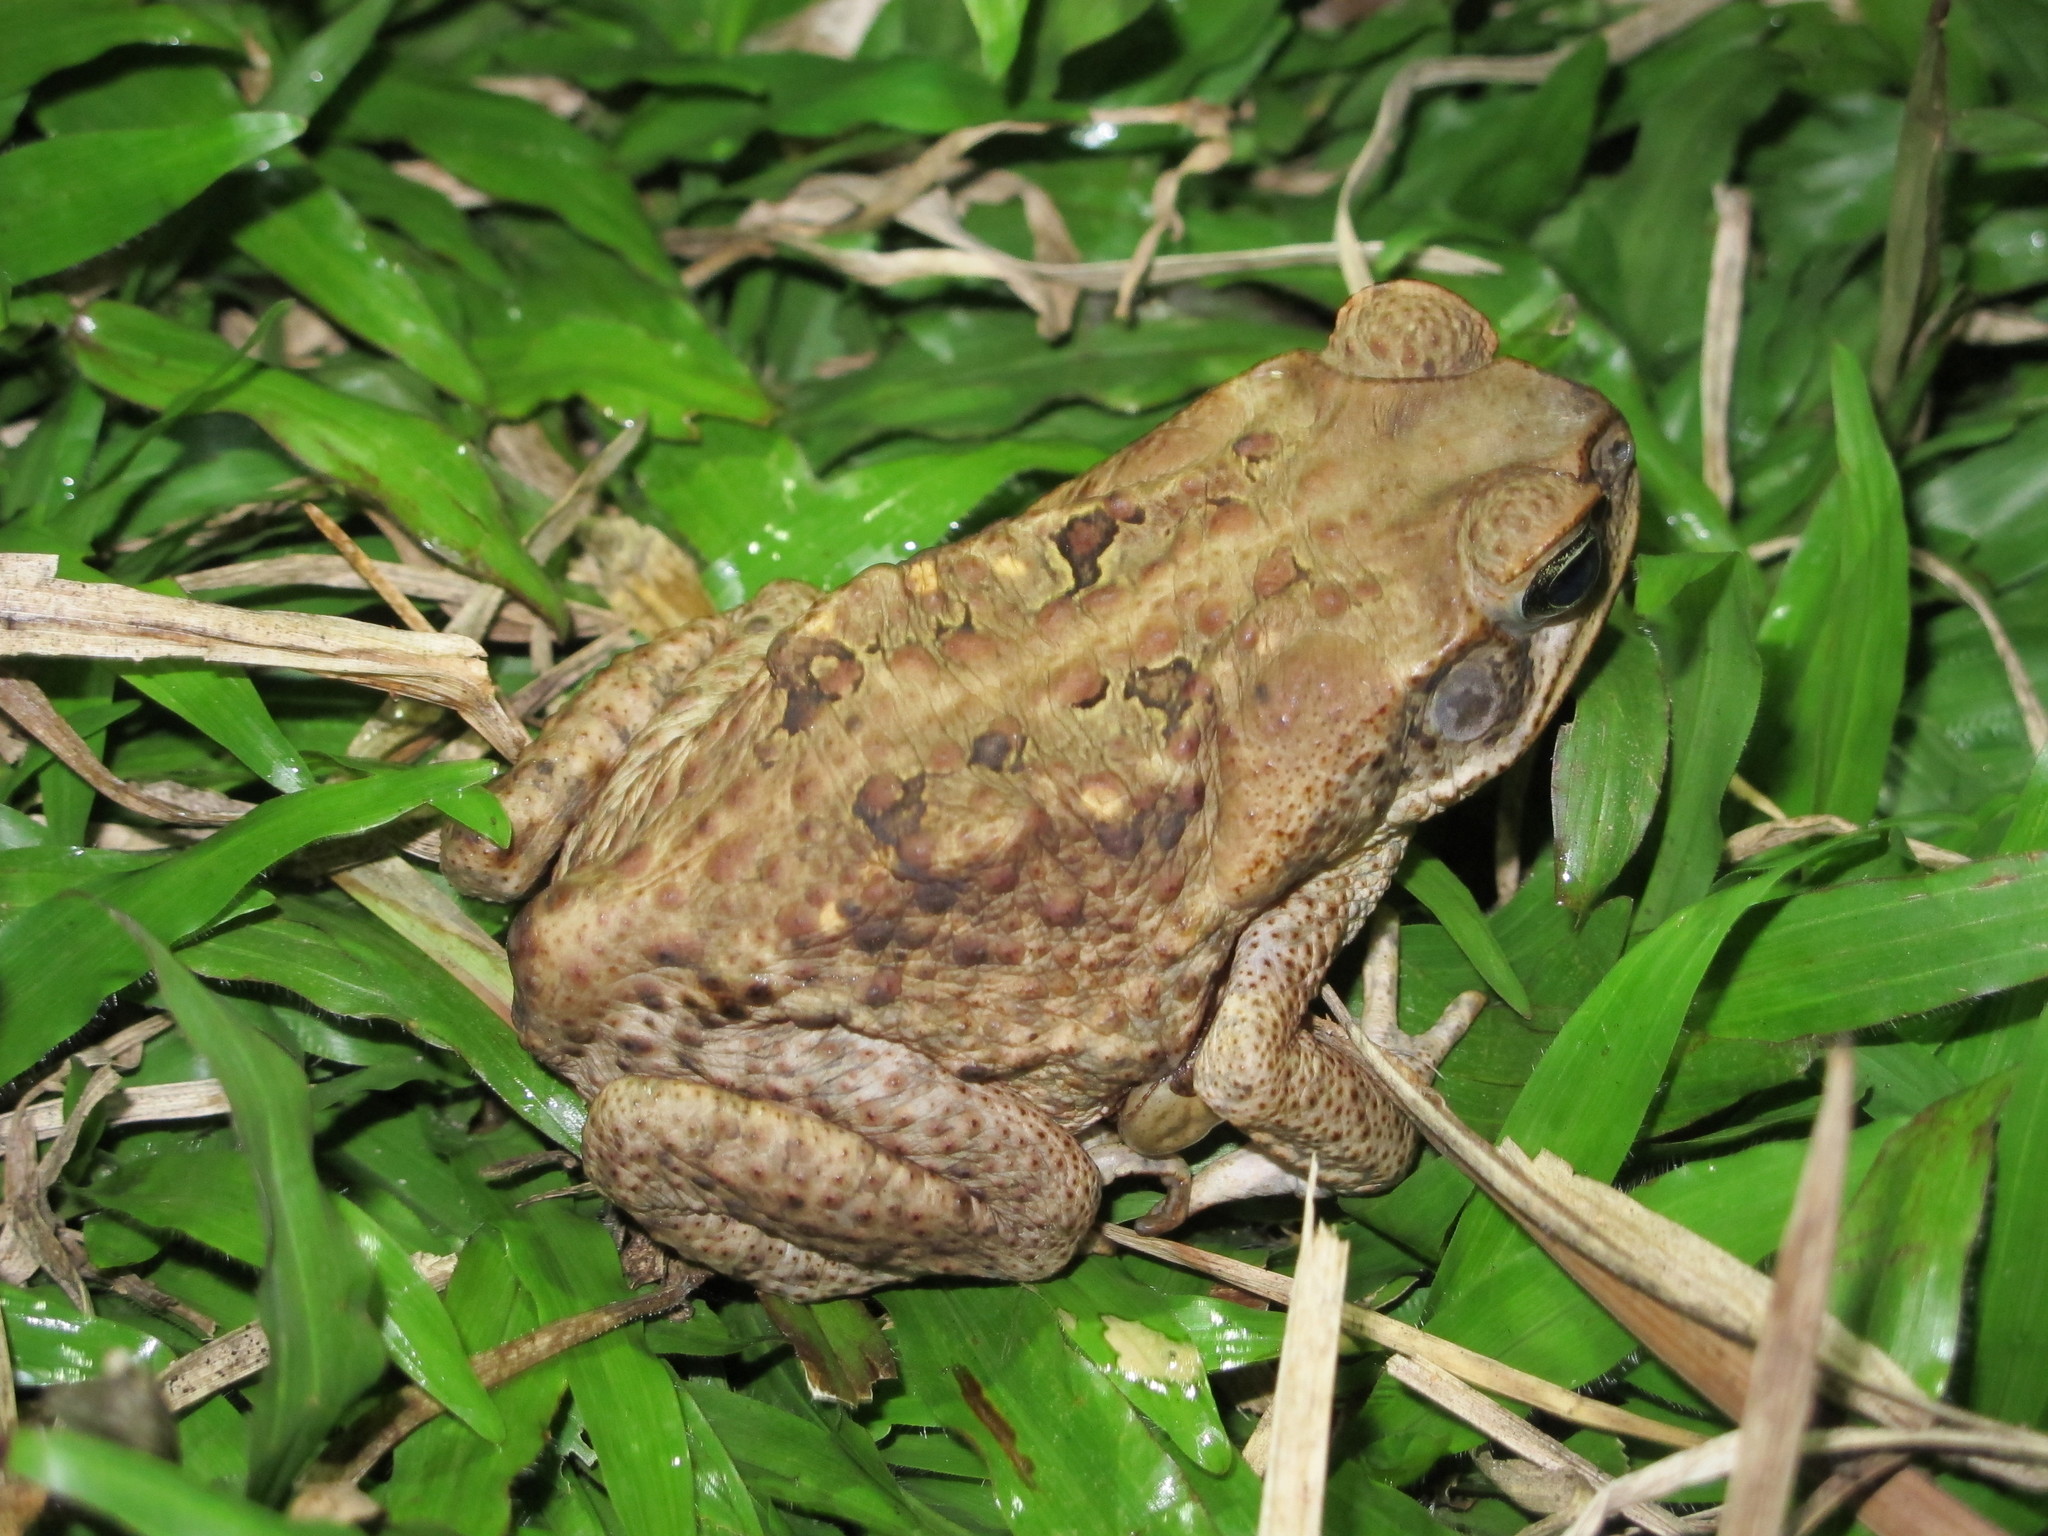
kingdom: Animalia
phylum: Chordata
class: Amphibia
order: Anura
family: Bufonidae
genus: Rhinella
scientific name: Rhinella marina
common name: Cane toad
